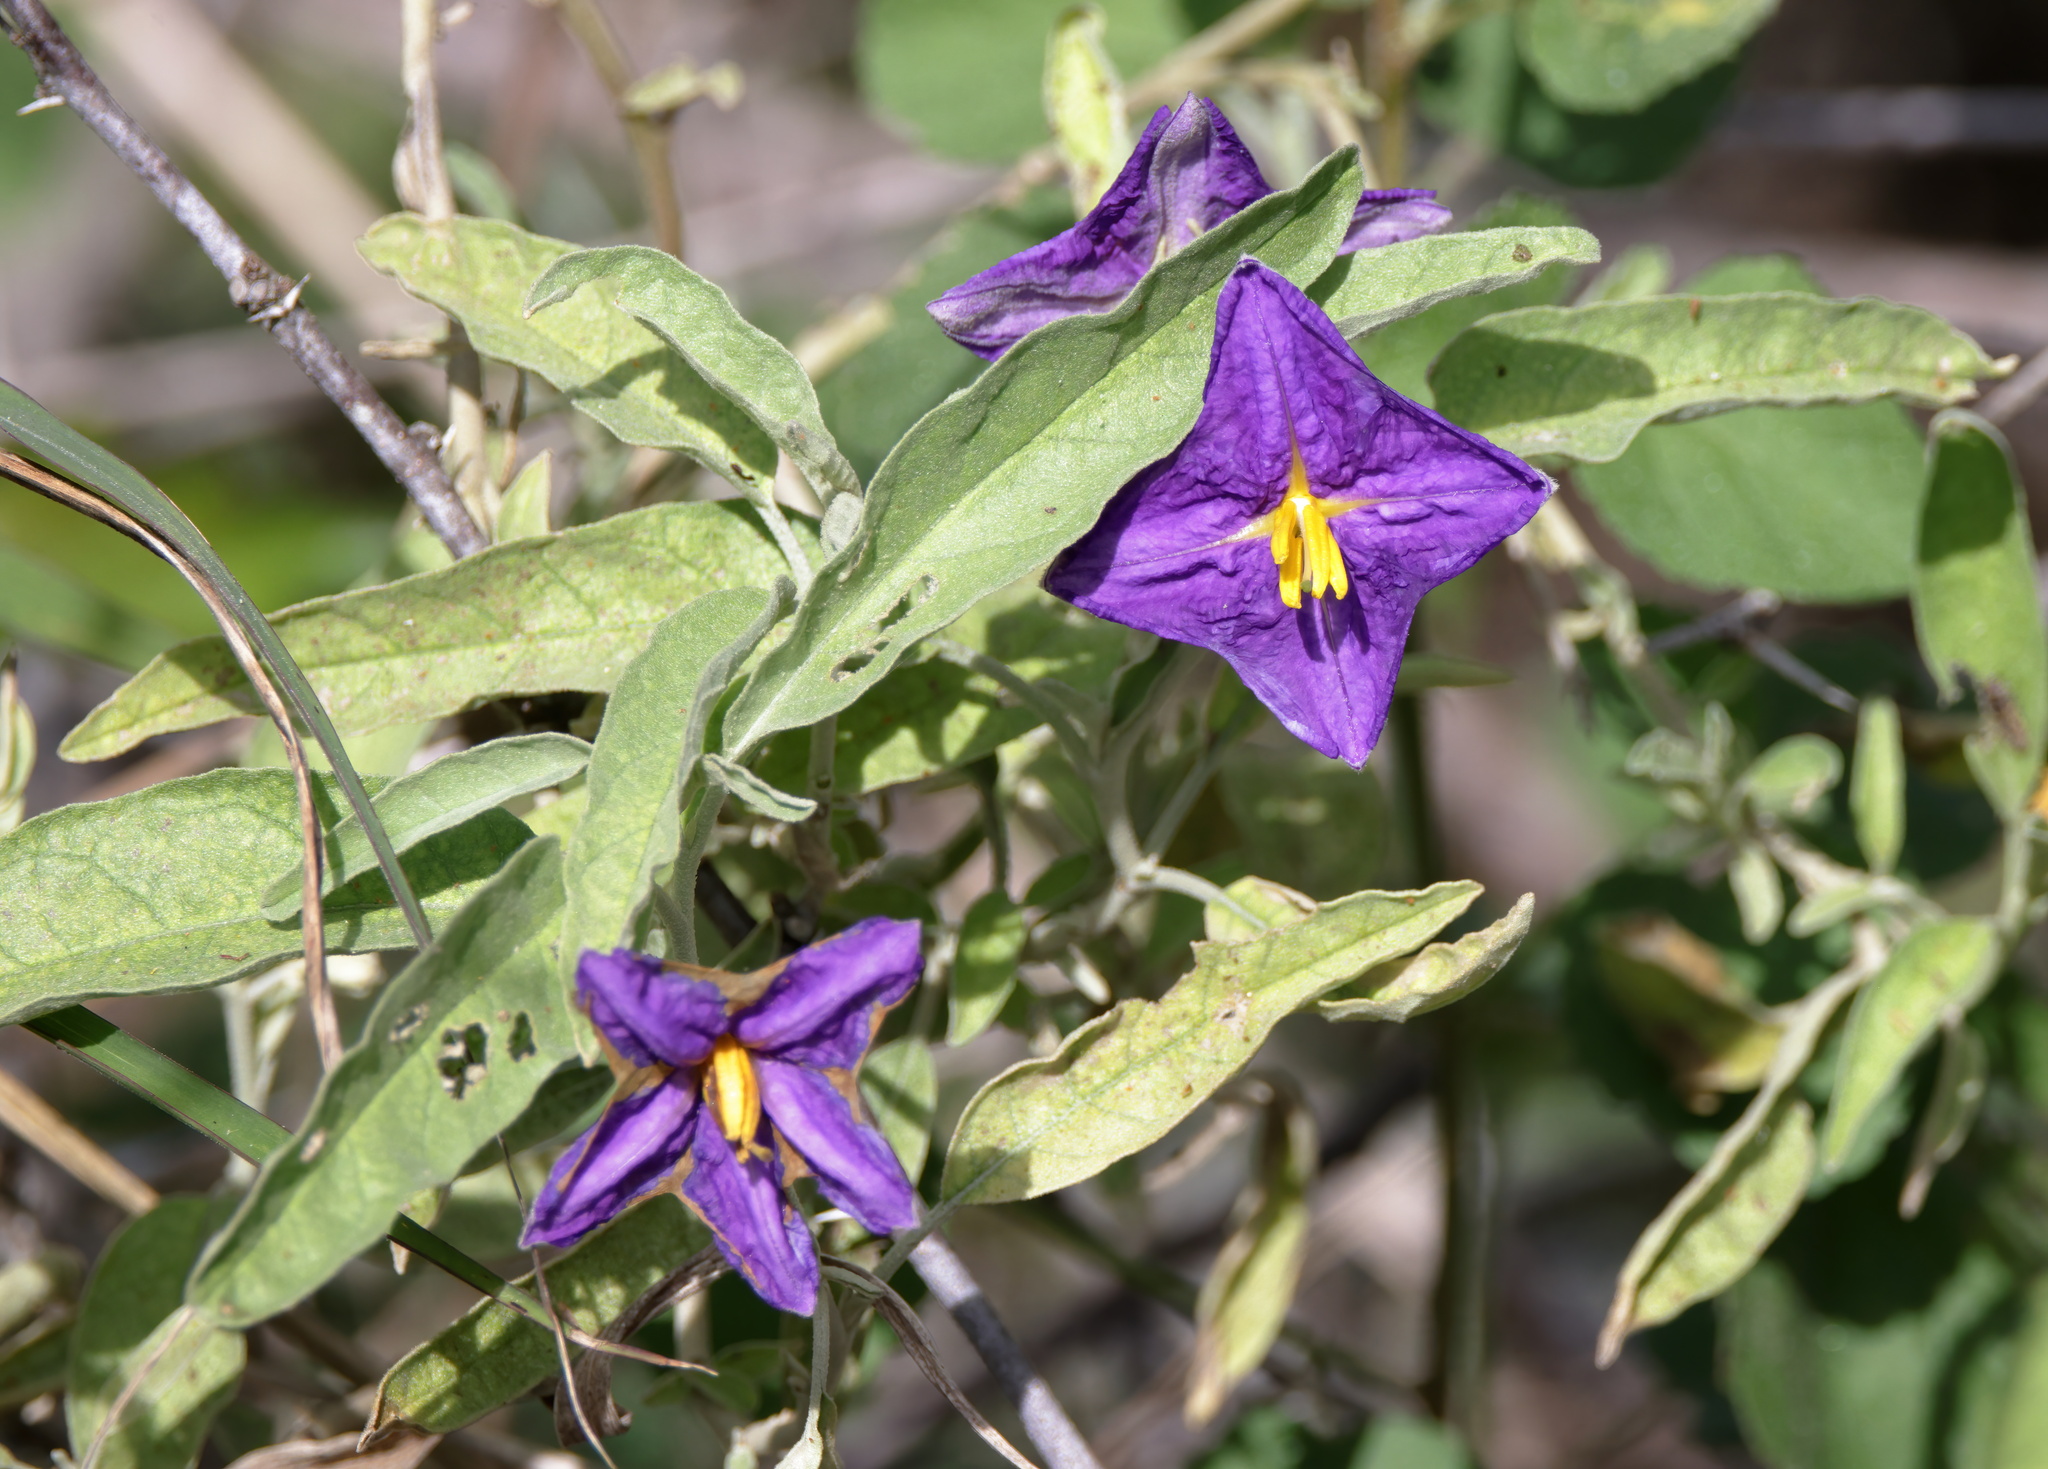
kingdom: Plantae
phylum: Tracheophyta
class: Magnoliopsida
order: Solanales
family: Solanaceae
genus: Solanum
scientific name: Solanum elaeagnifolium
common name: Silverleaf nightshade
